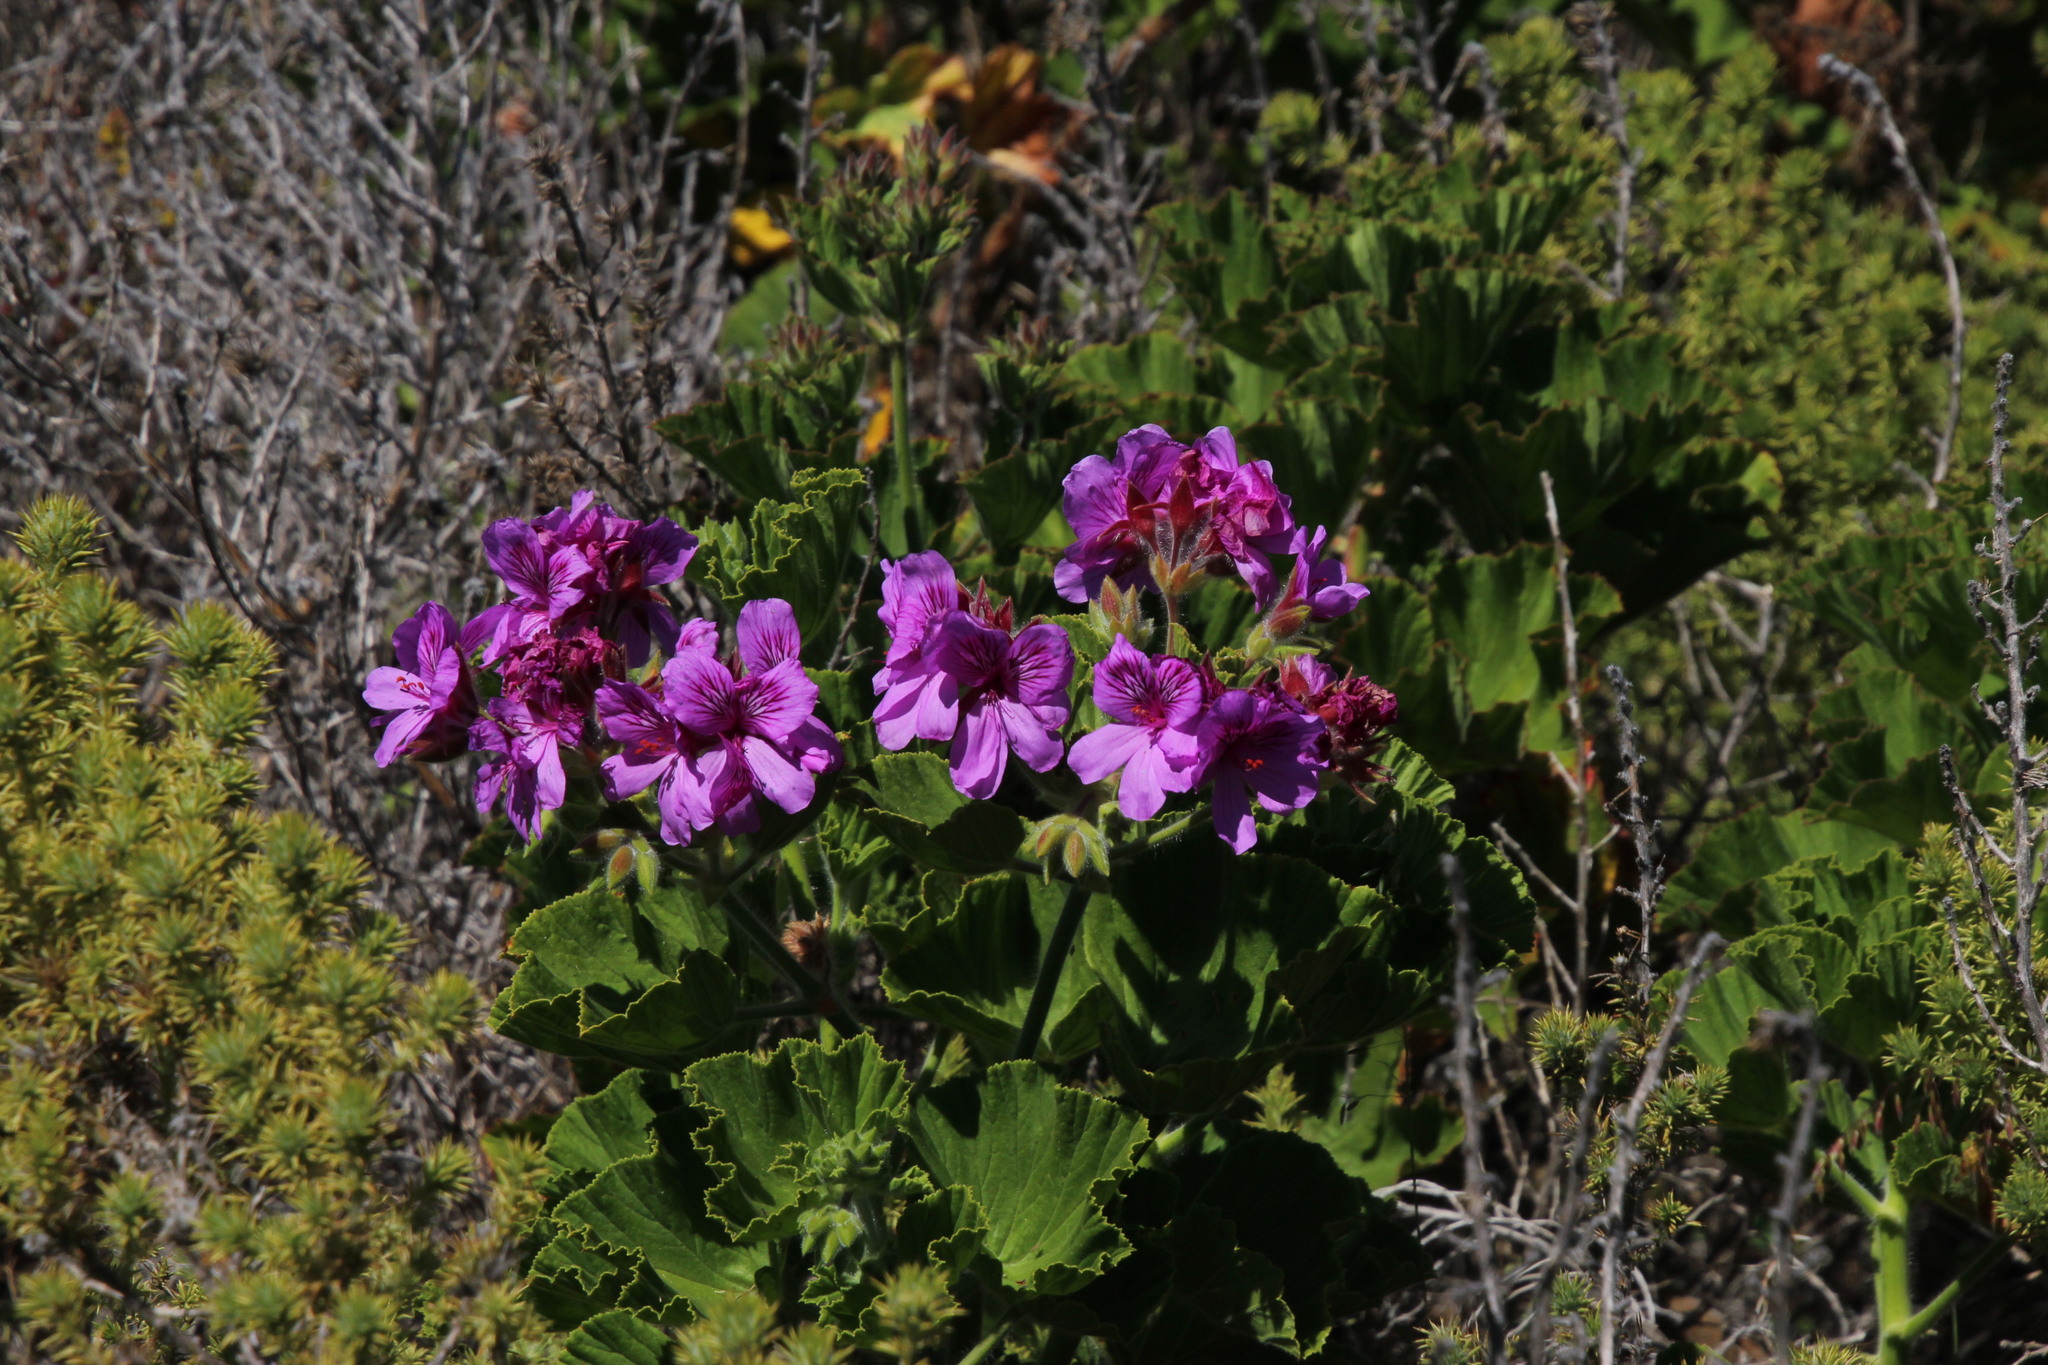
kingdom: Plantae
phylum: Tracheophyta
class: Magnoliopsida
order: Geraniales
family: Geraniaceae
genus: Pelargonium
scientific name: Pelargonium cucullatum
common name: Tree pelargonium
